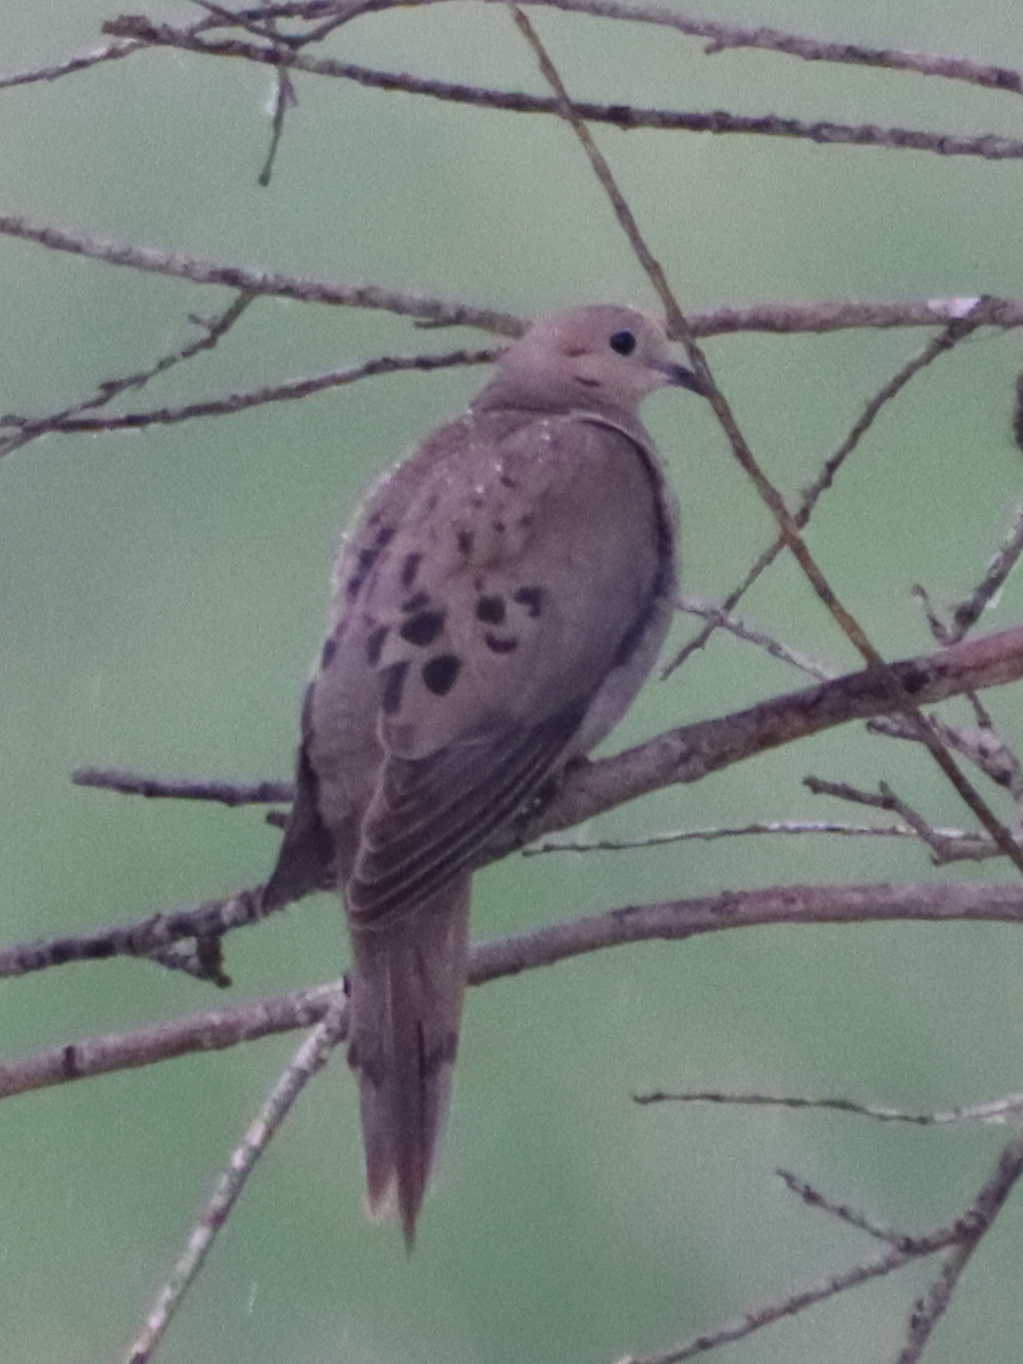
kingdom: Animalia
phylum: Chordata
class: Aves
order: Columbiformes
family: Columbidae
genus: Zenaida
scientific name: Zenaida macroura
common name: Mourning dove
